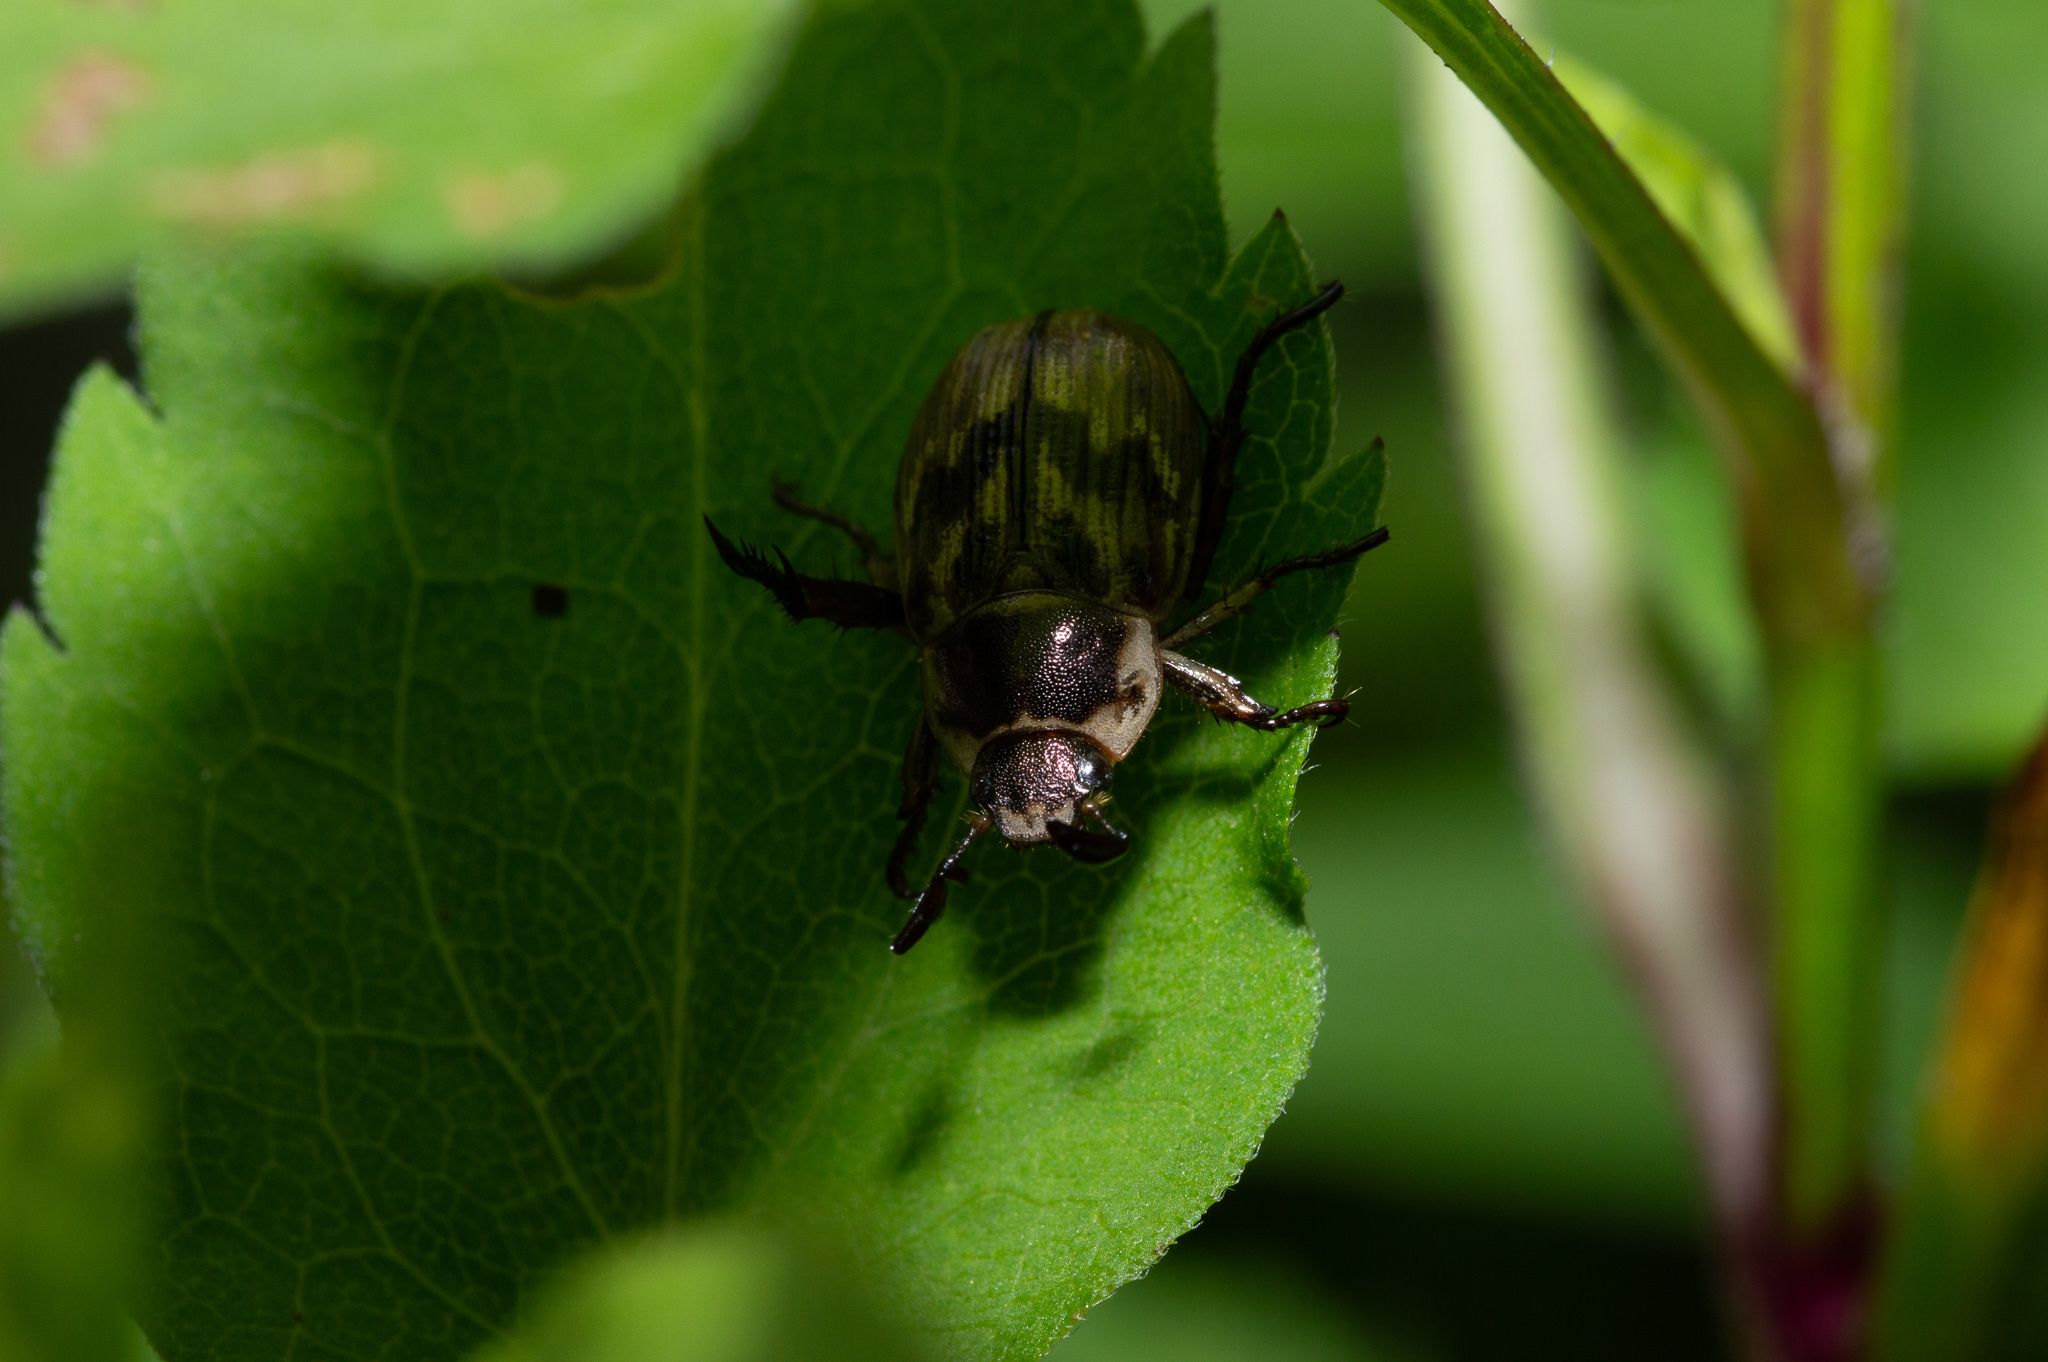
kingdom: Animalia
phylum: Arthropoda
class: Insecta
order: Coleoptera
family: Scarabaeidae
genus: Exomala
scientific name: Exomala orientalis
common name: Oriental beetle
